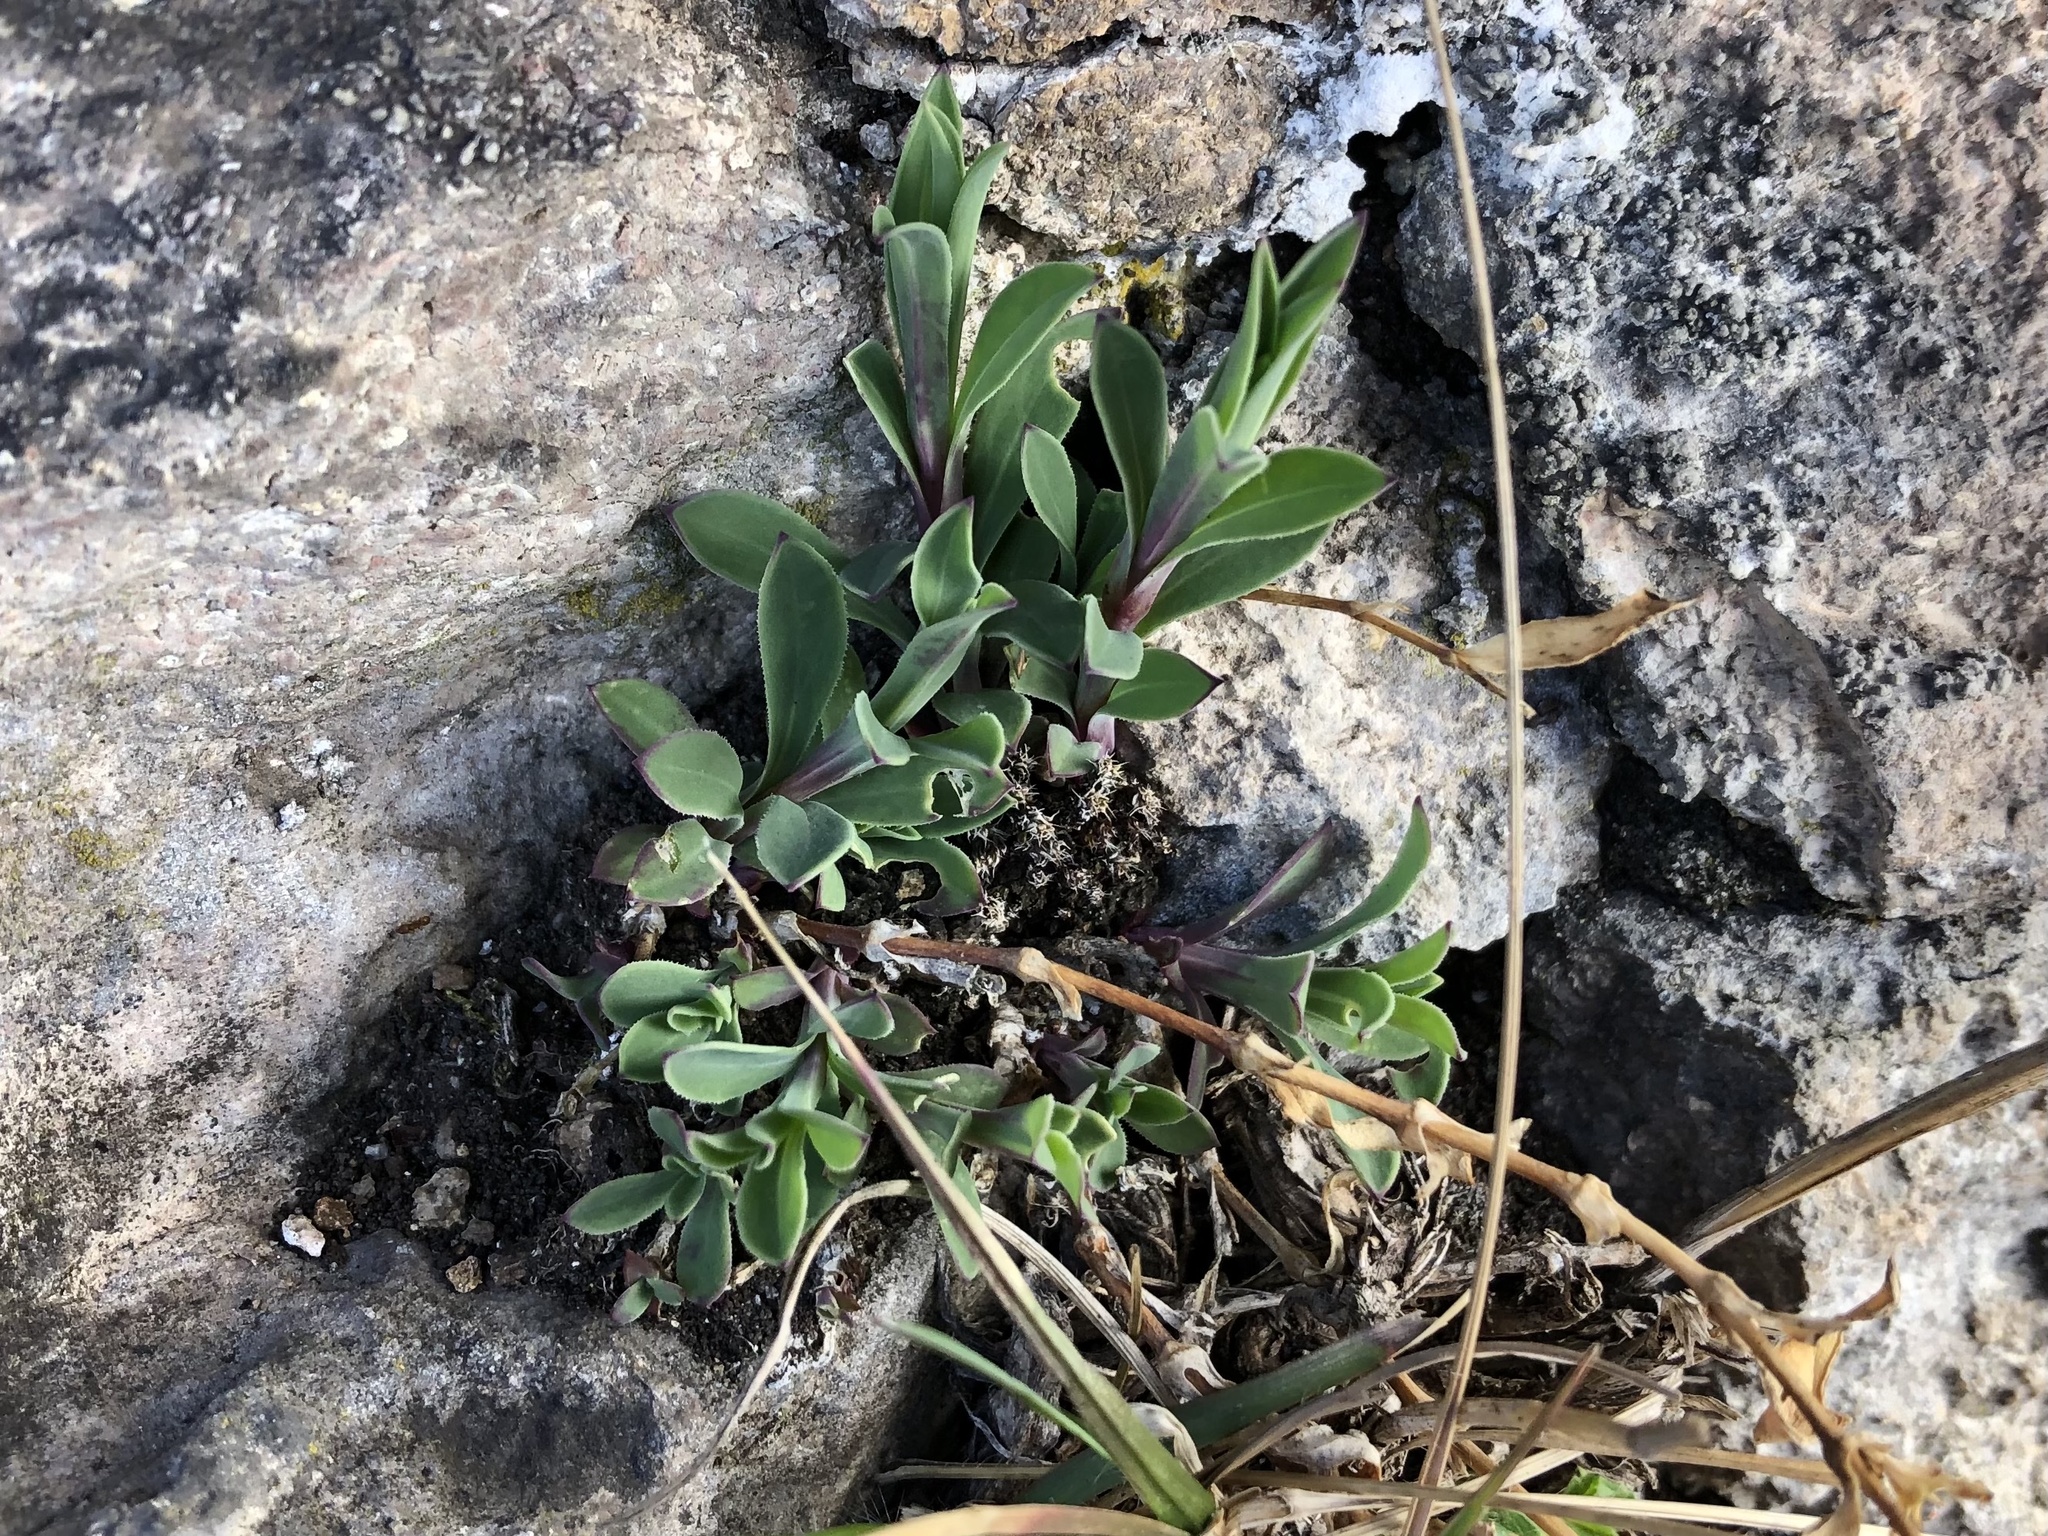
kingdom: Plantae
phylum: Tracheophyta
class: Magnoliopsida
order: Caryophyllales
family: Caryophyllaceae
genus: Silene
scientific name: Silene vulgaris
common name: Bladder campion
